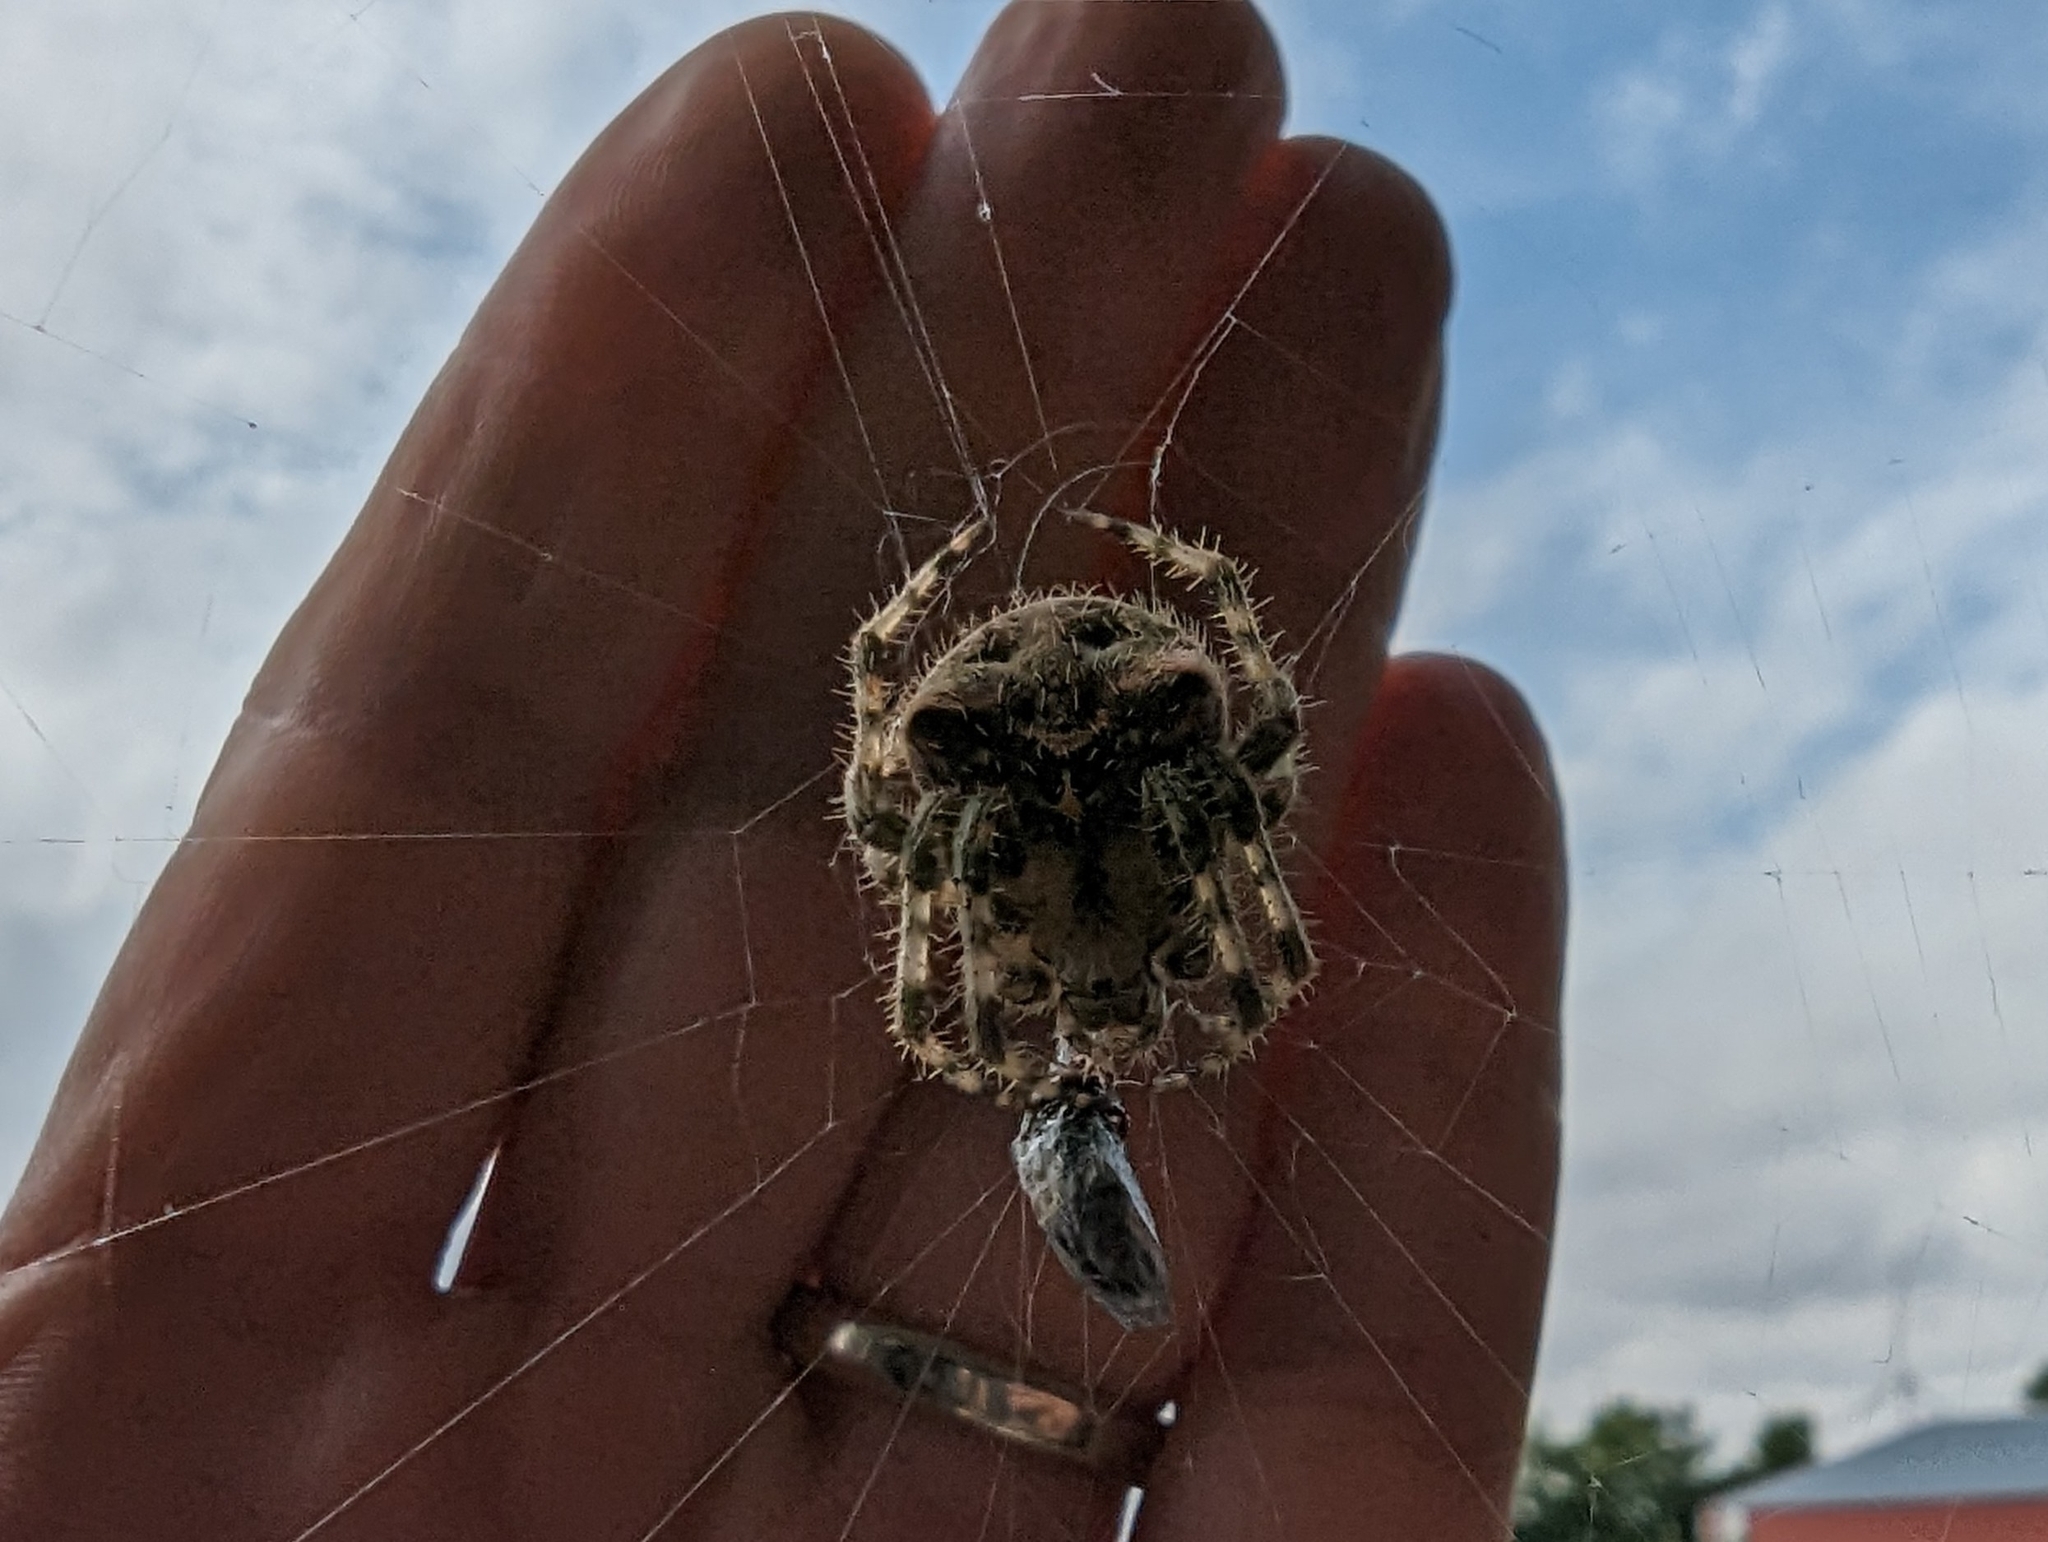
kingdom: Animalia
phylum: Arthropoda
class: Arachnida
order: Araneae
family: Araneidae
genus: Araneus
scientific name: Araneus gemmoides
